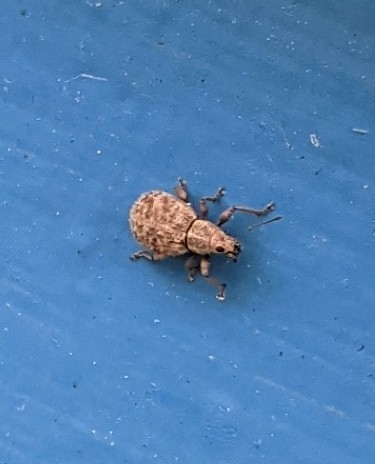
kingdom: Animalia
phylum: Arthropoda
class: Insecta
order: Coleoptera
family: Curculionidae
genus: Sciaphilus
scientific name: Sciaphilus asperatus
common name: Weevil
